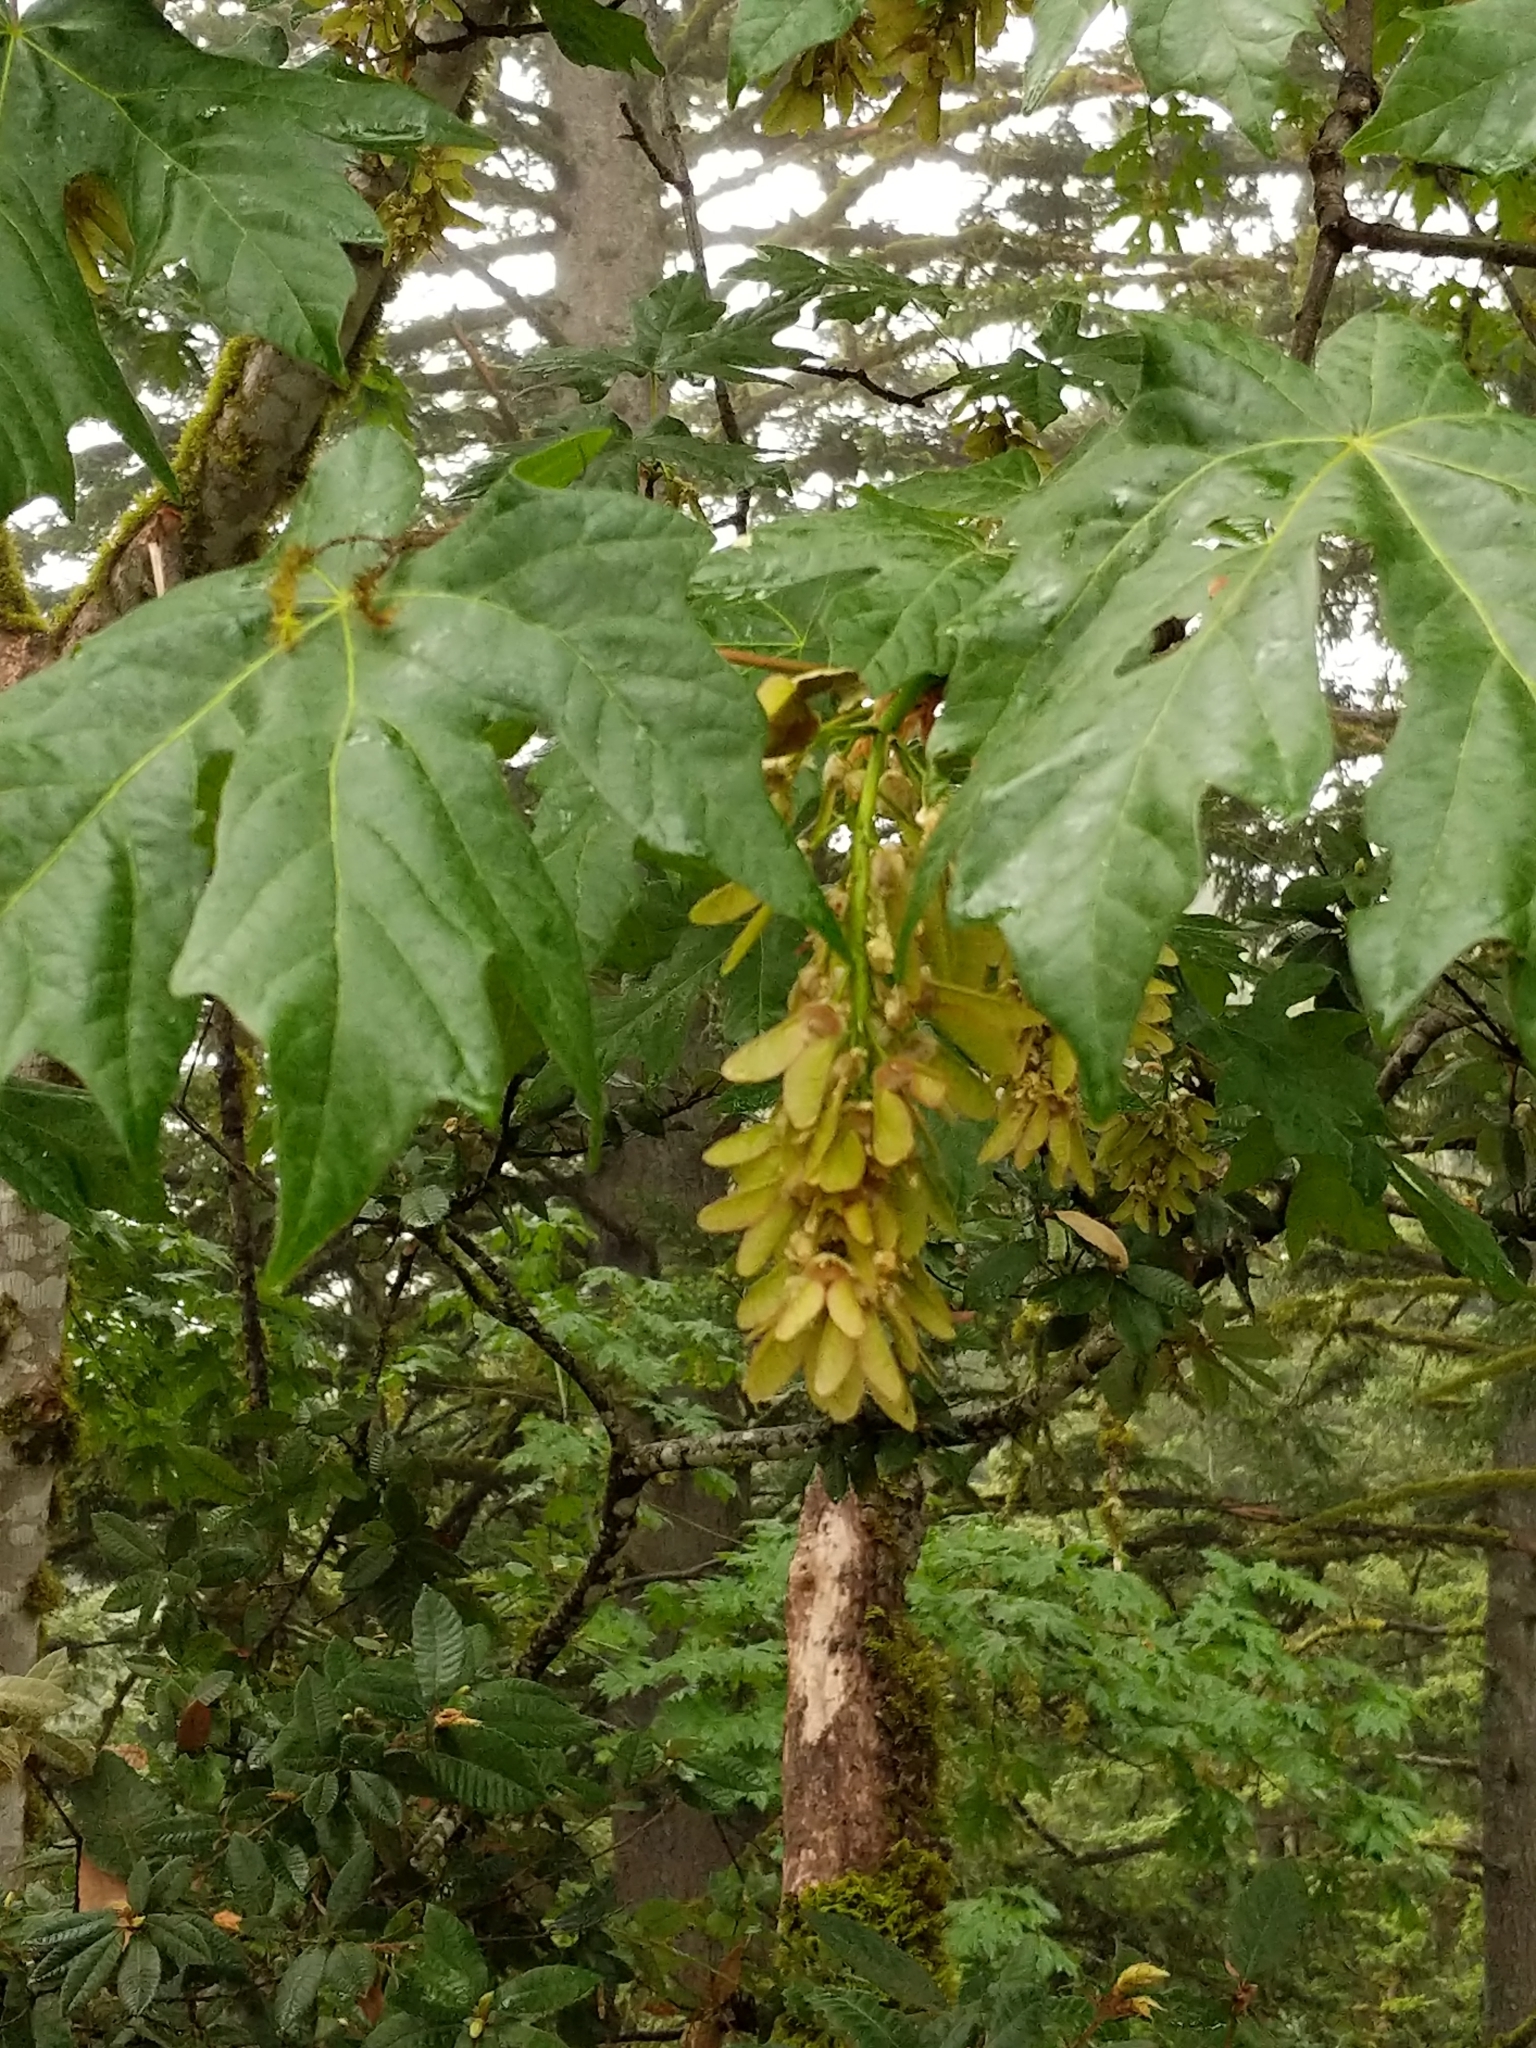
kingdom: Plantae
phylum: Tracheophyta
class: Magnoliopsida
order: Sapindales
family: Sapindaceae
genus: Acer
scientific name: Acer macrophyllum
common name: Oregon maple
